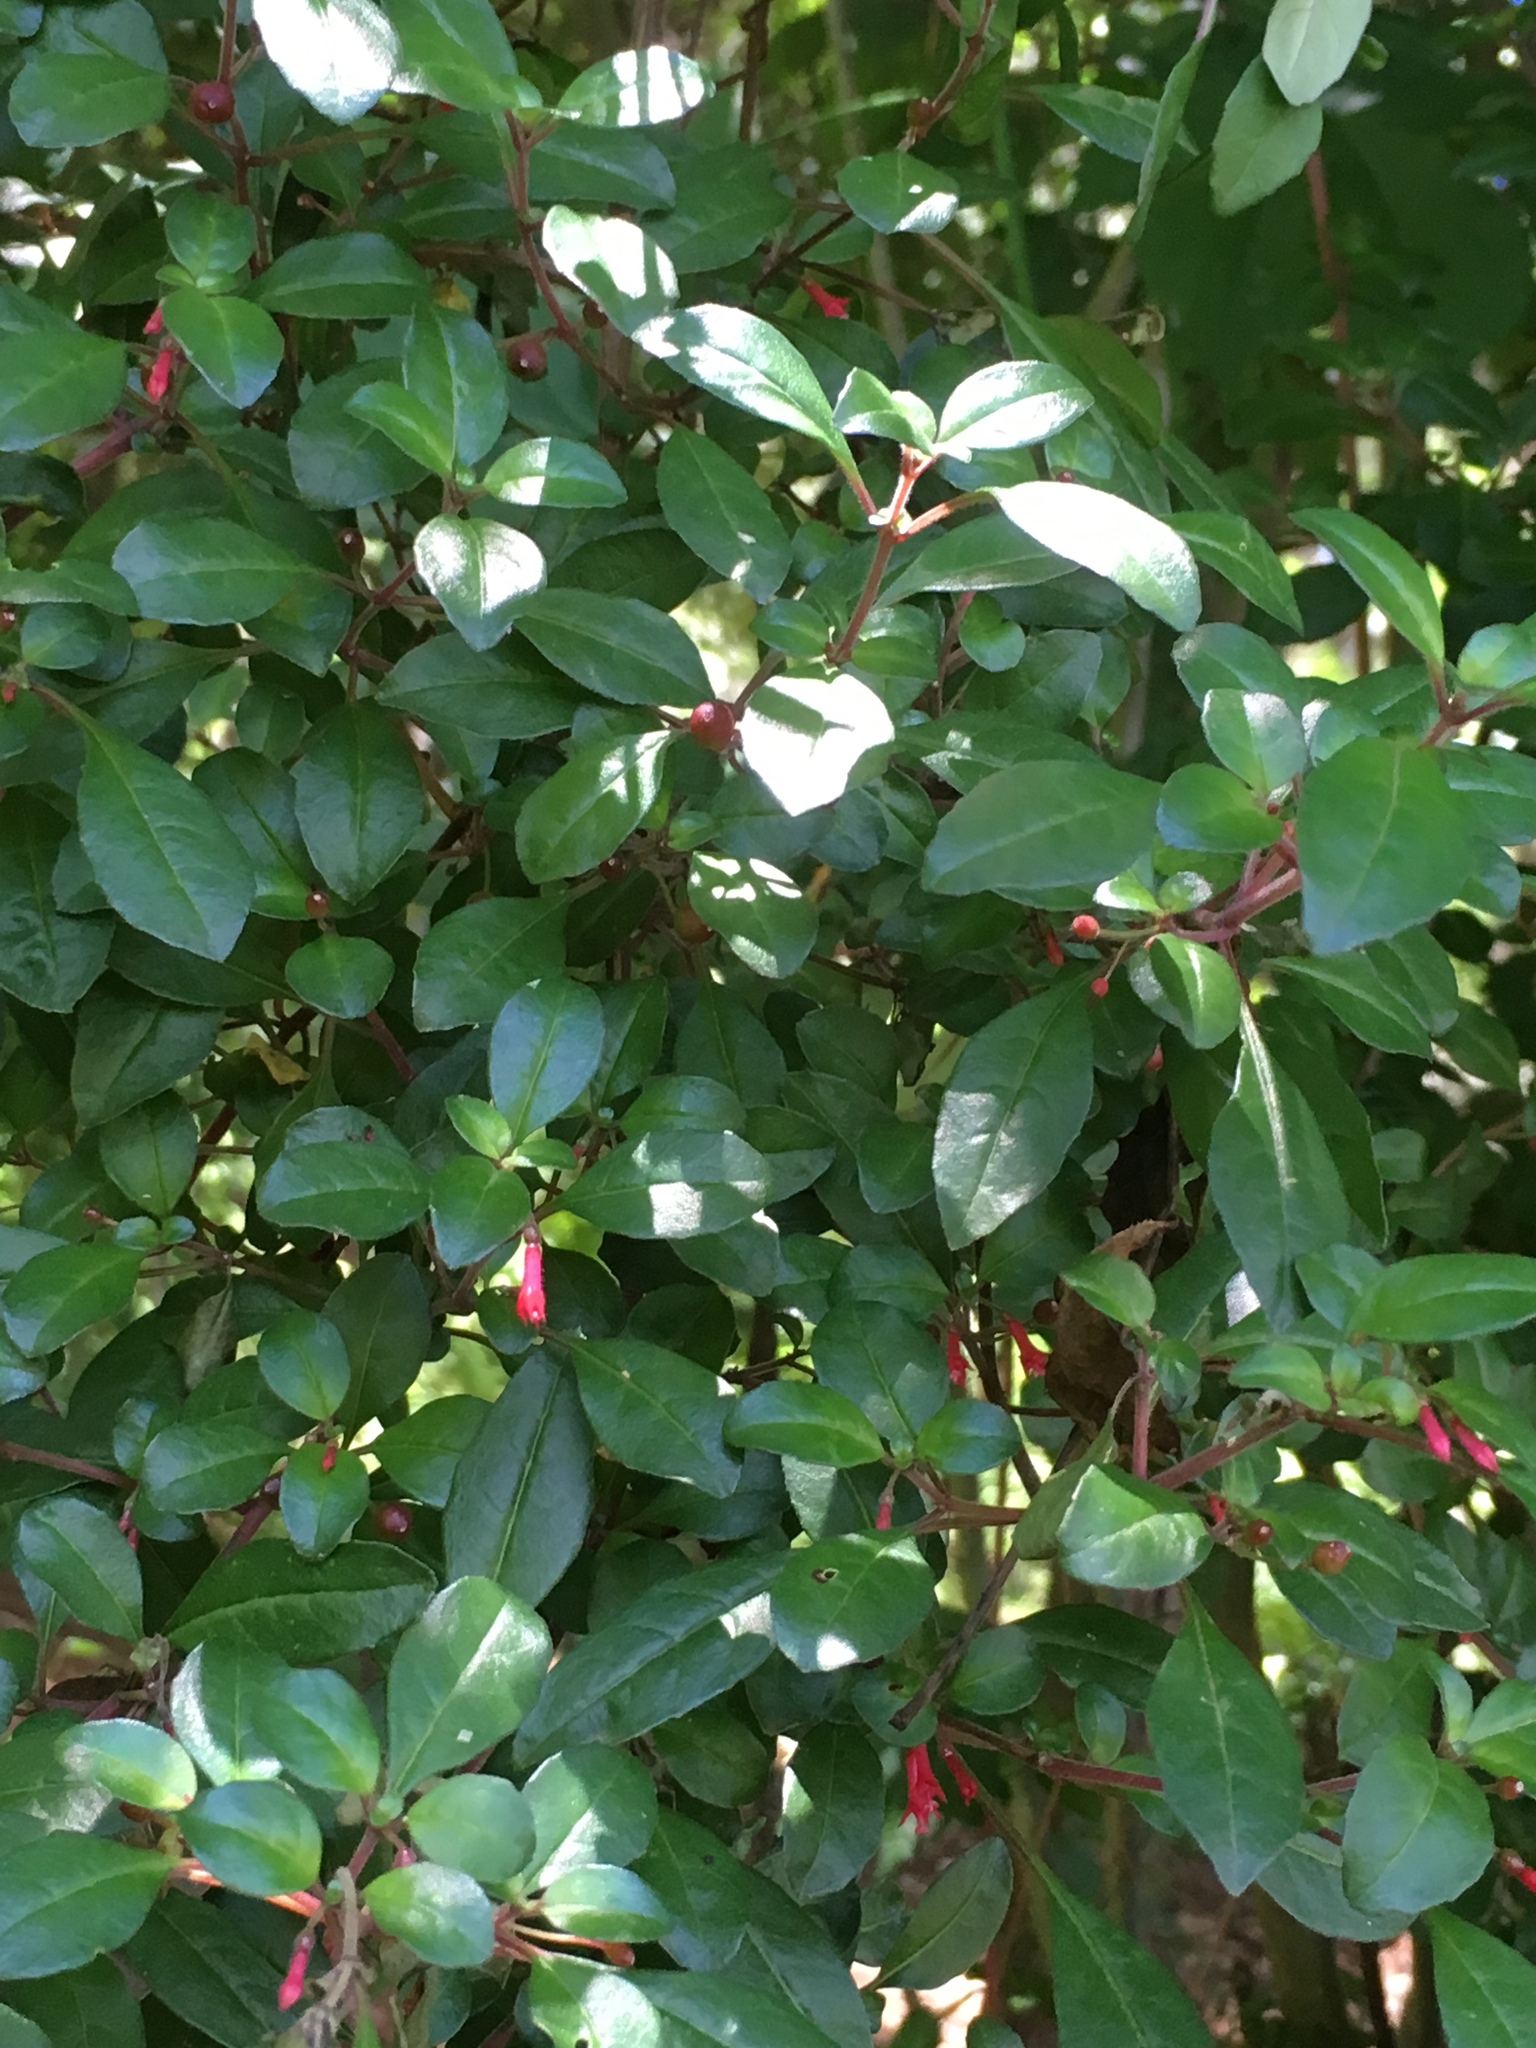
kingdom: Plantae
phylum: Tracheophyta
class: Magnoliopsida
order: Myrtales
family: Onagraceae
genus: Fuchsia
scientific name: Fuchsia microphylla
